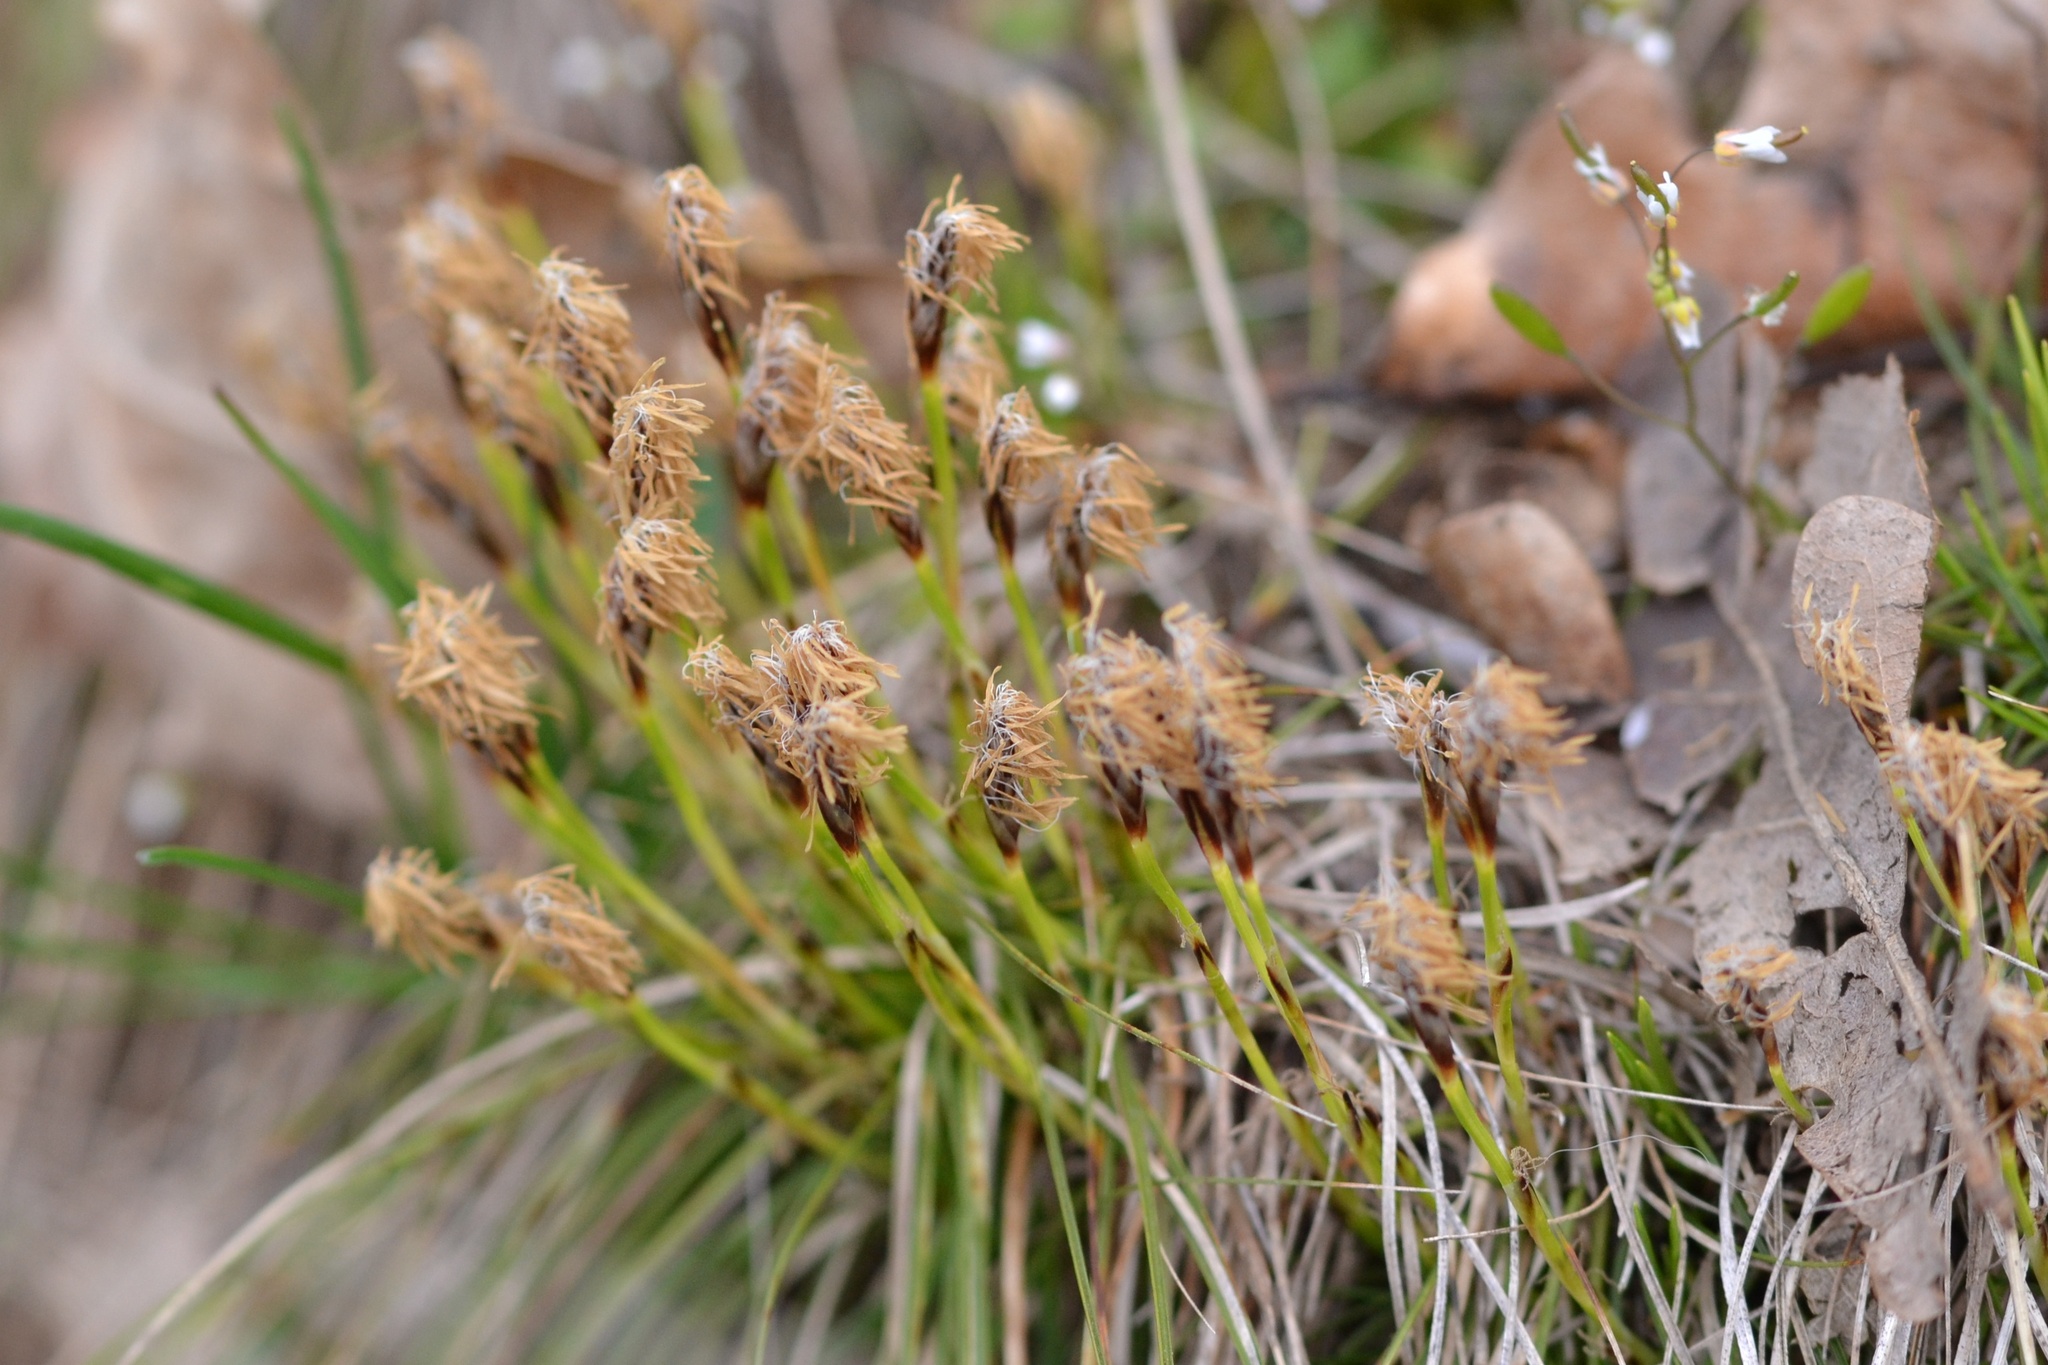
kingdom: Plantae
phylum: Tracheophyta
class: Liliopsida
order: Poales
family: Cyperaceae
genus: Carex
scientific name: Carex humilis
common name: Dwarf sedge
